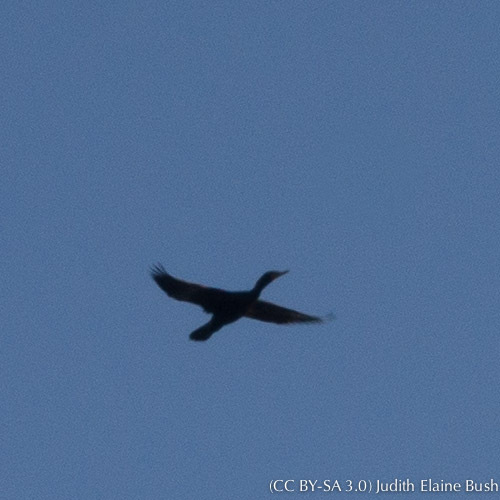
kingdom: Animalia
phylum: Chordata
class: Aves
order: Suliformes
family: Phalacrocoracidae
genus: Phalacrocorax
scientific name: Phalacrocorax auritus
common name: Double-crested cormorant
